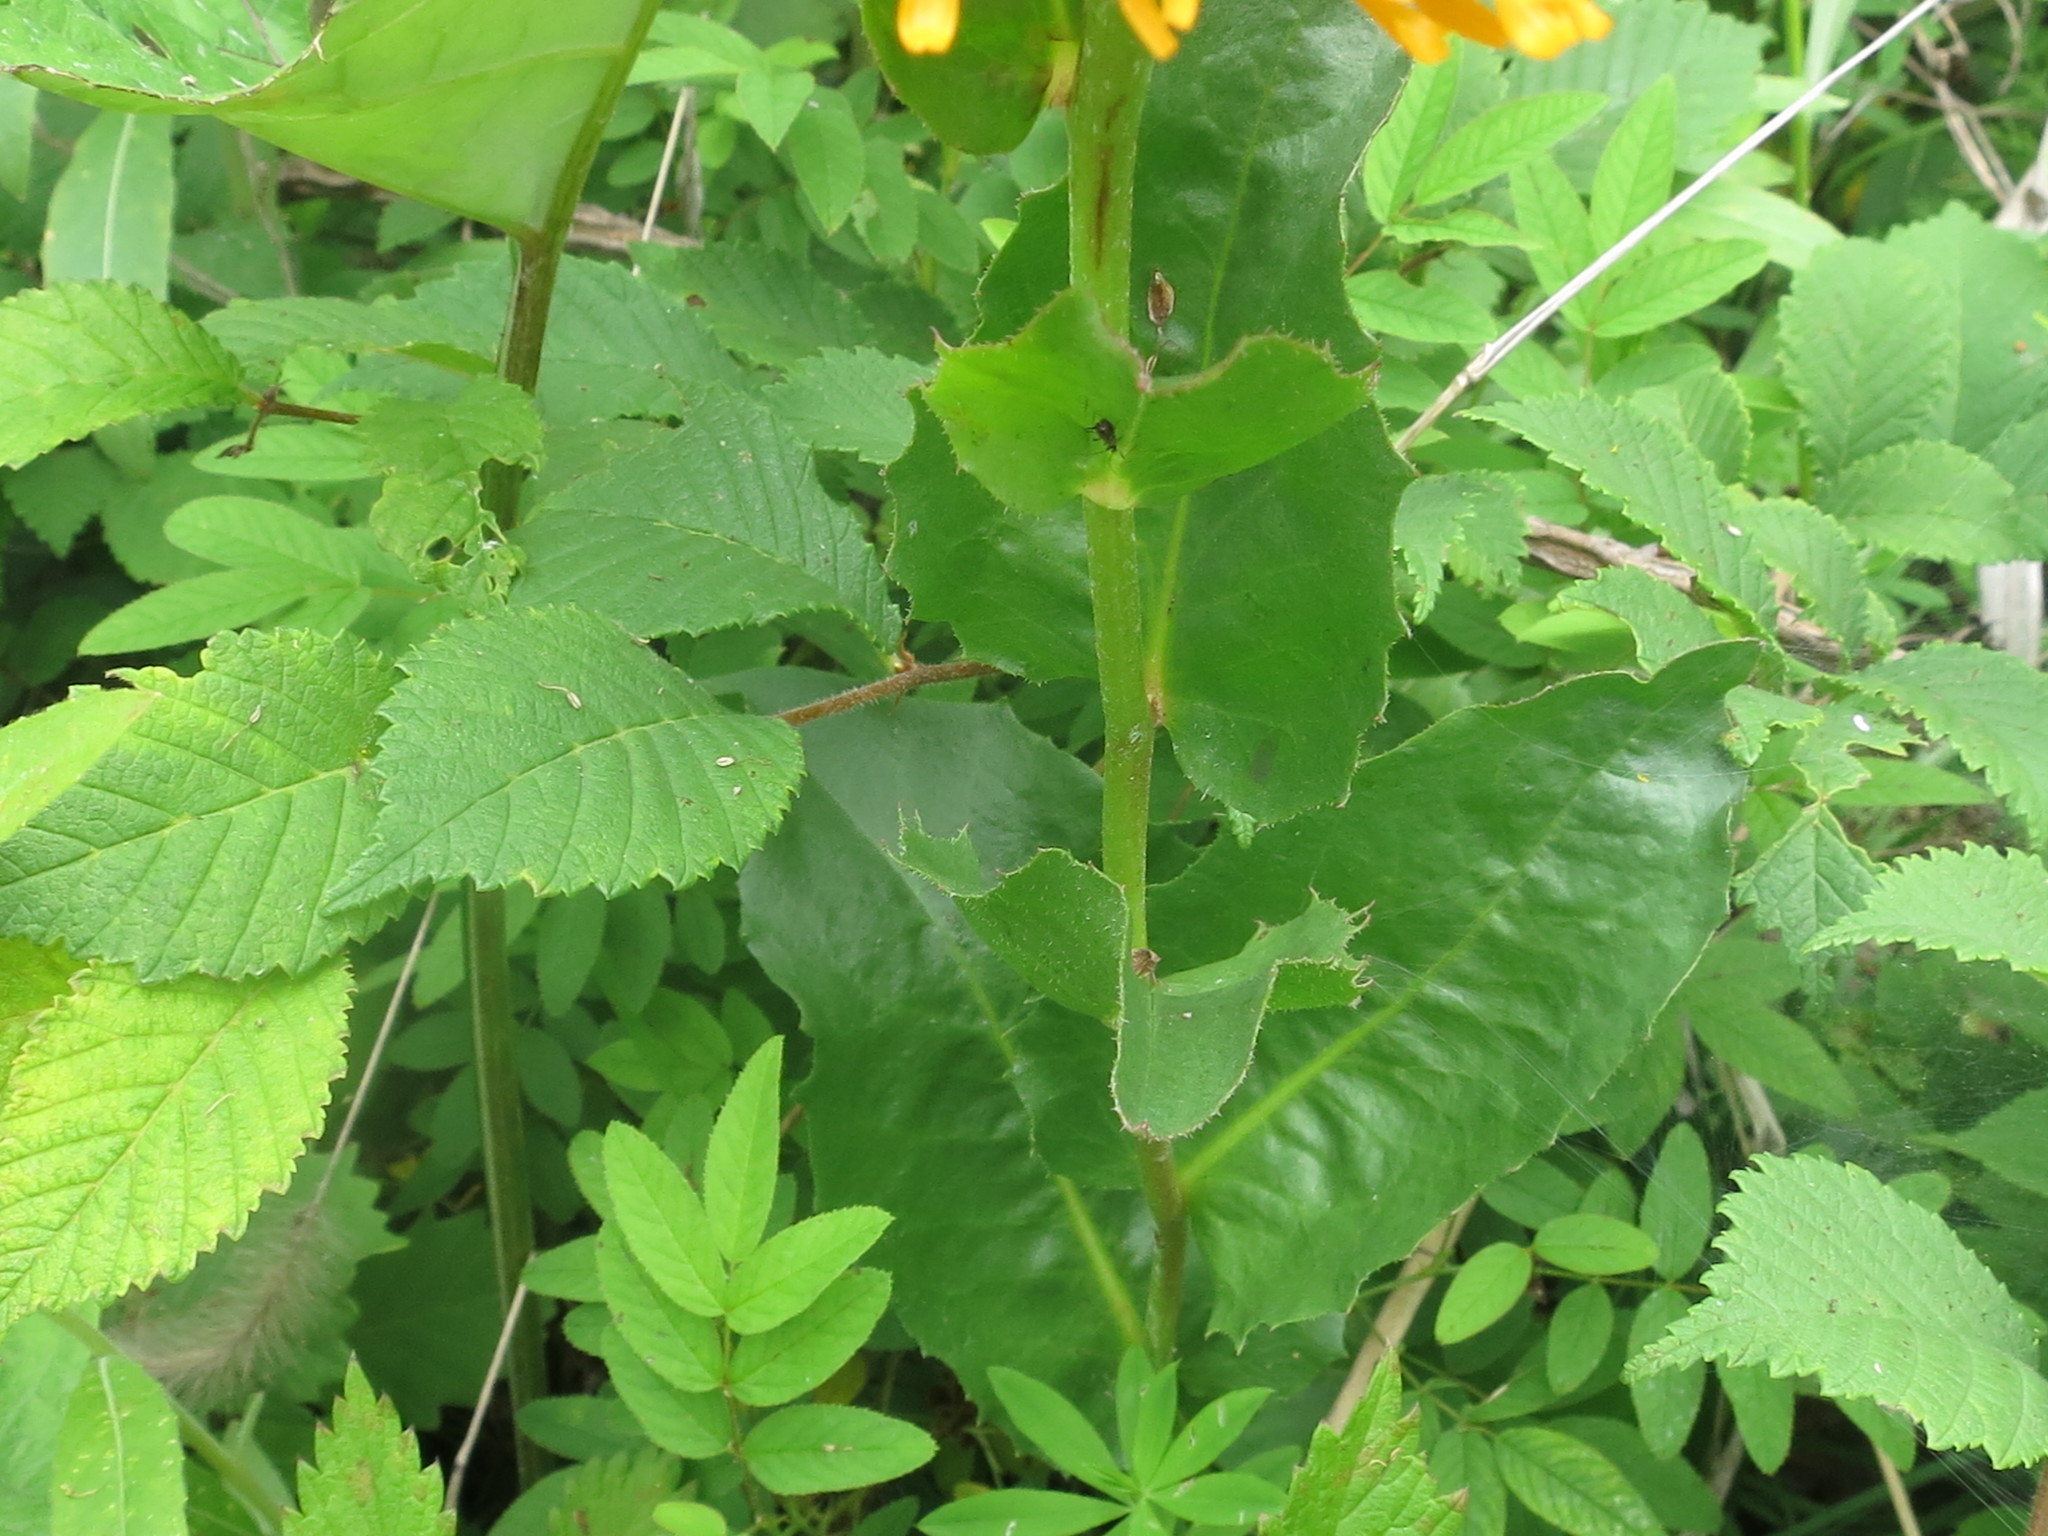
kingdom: Plantae
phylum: Tracheophyta
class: Magnoliopsida
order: Asterales
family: Asteraceae
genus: Trommsdorffia
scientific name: Trommsdorffia ciliata
